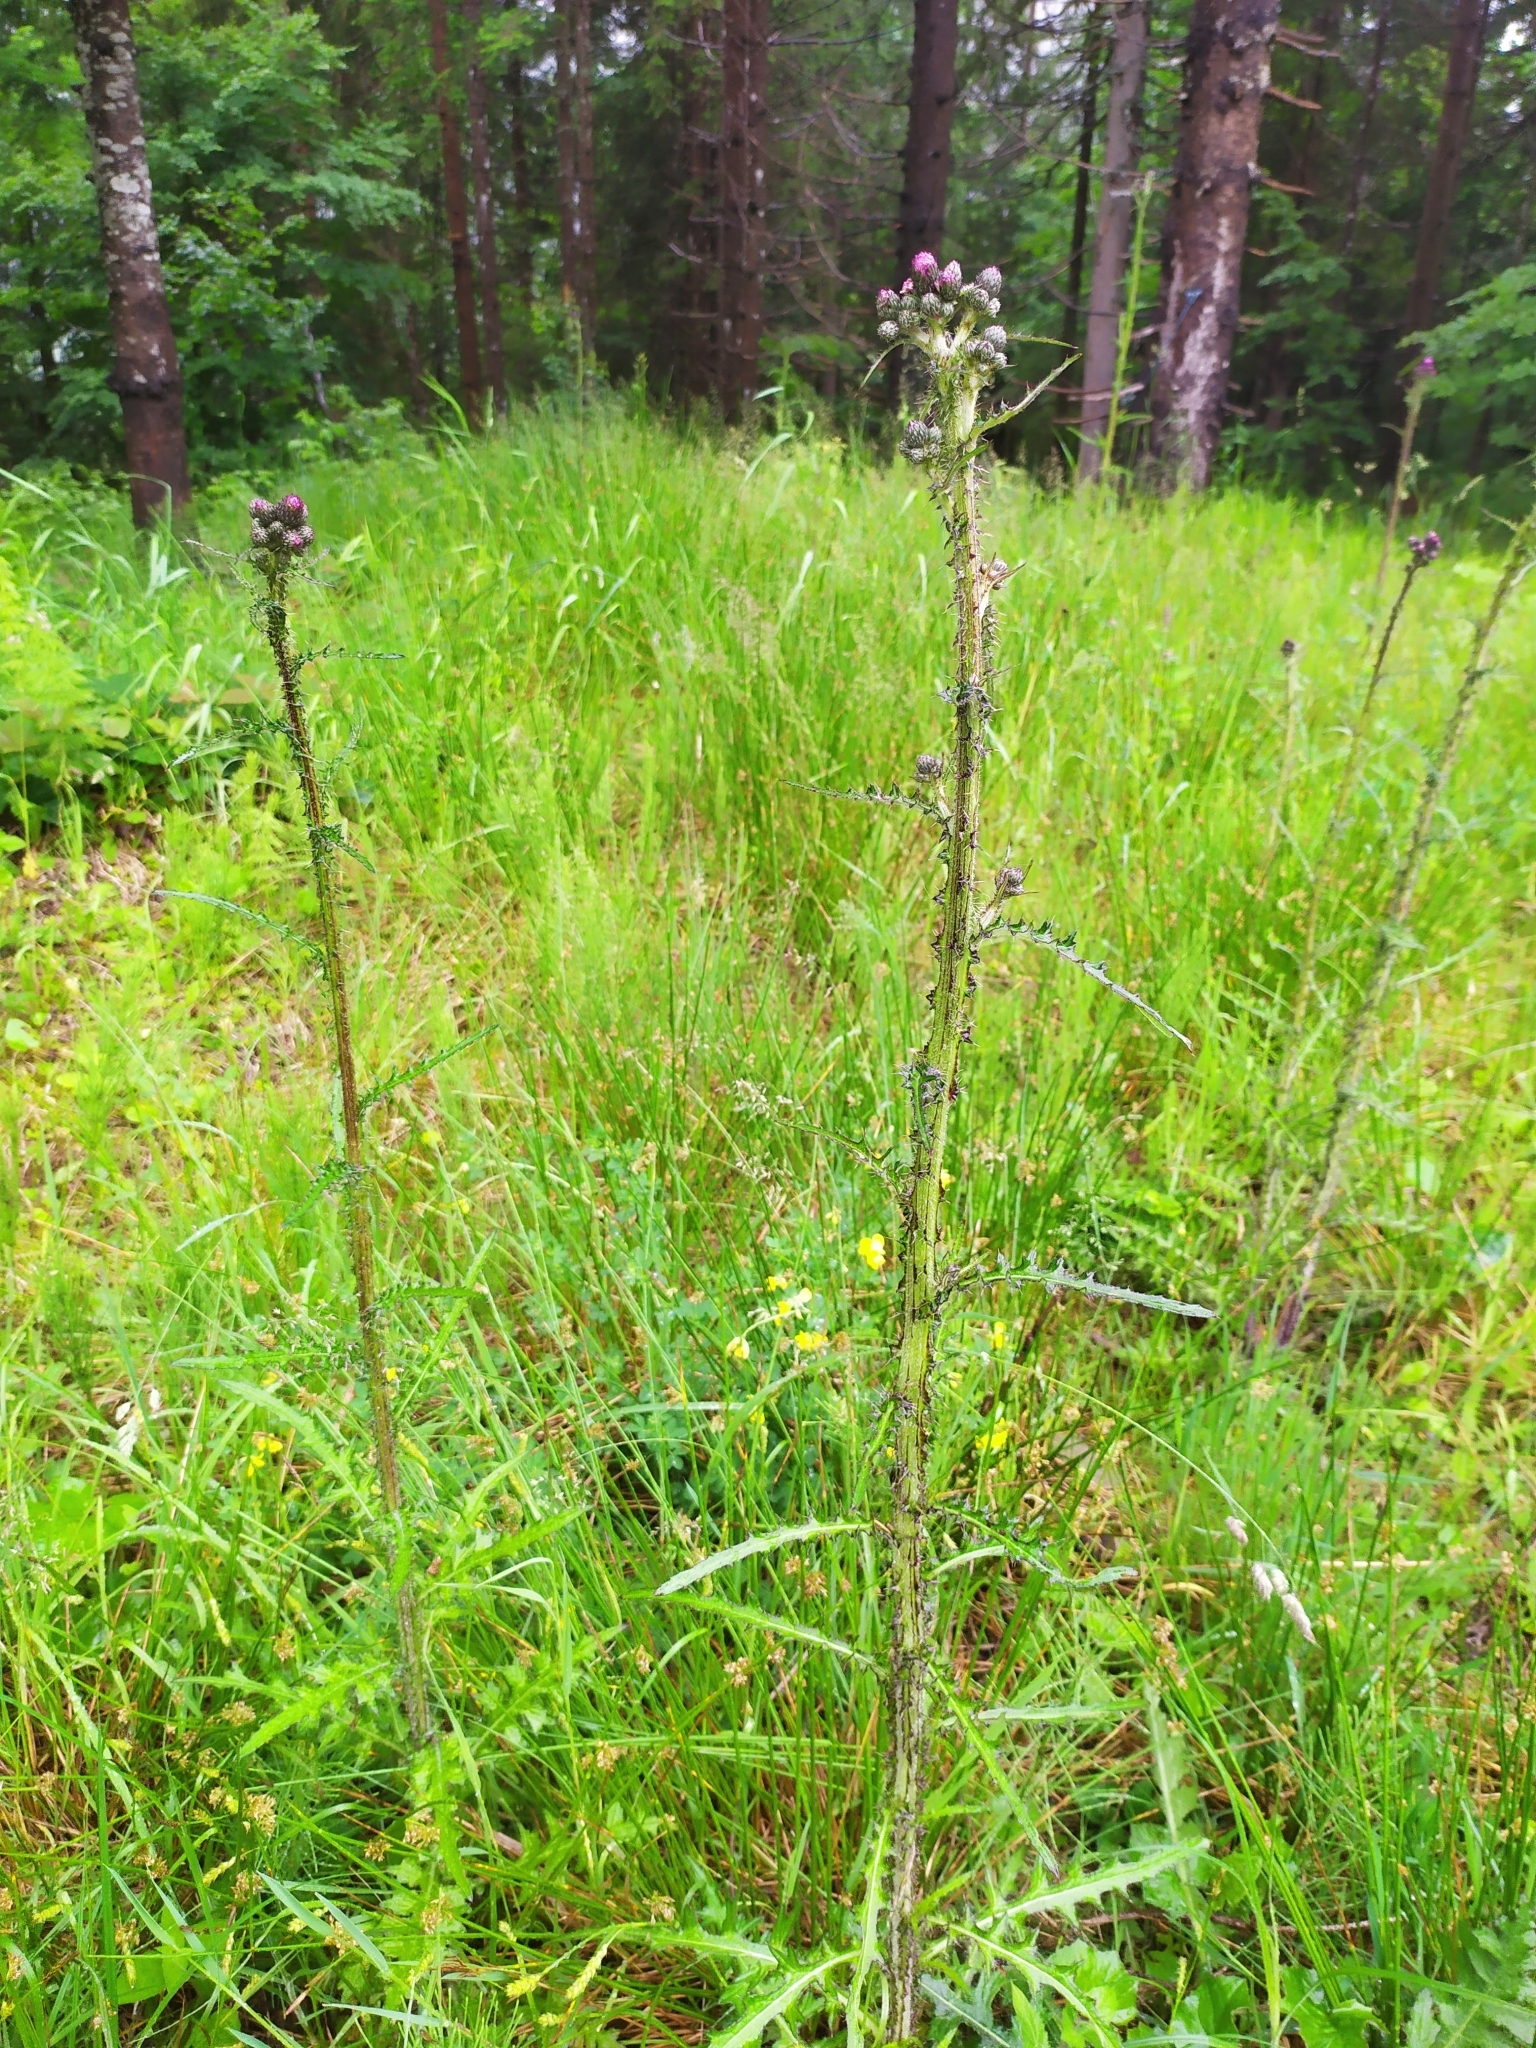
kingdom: Plantae
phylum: Tracheophyta
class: Magnoliopsida
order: Asterales
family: Asteraceae
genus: Cirsium
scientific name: Cirsium palustre
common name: Marsh thistle
